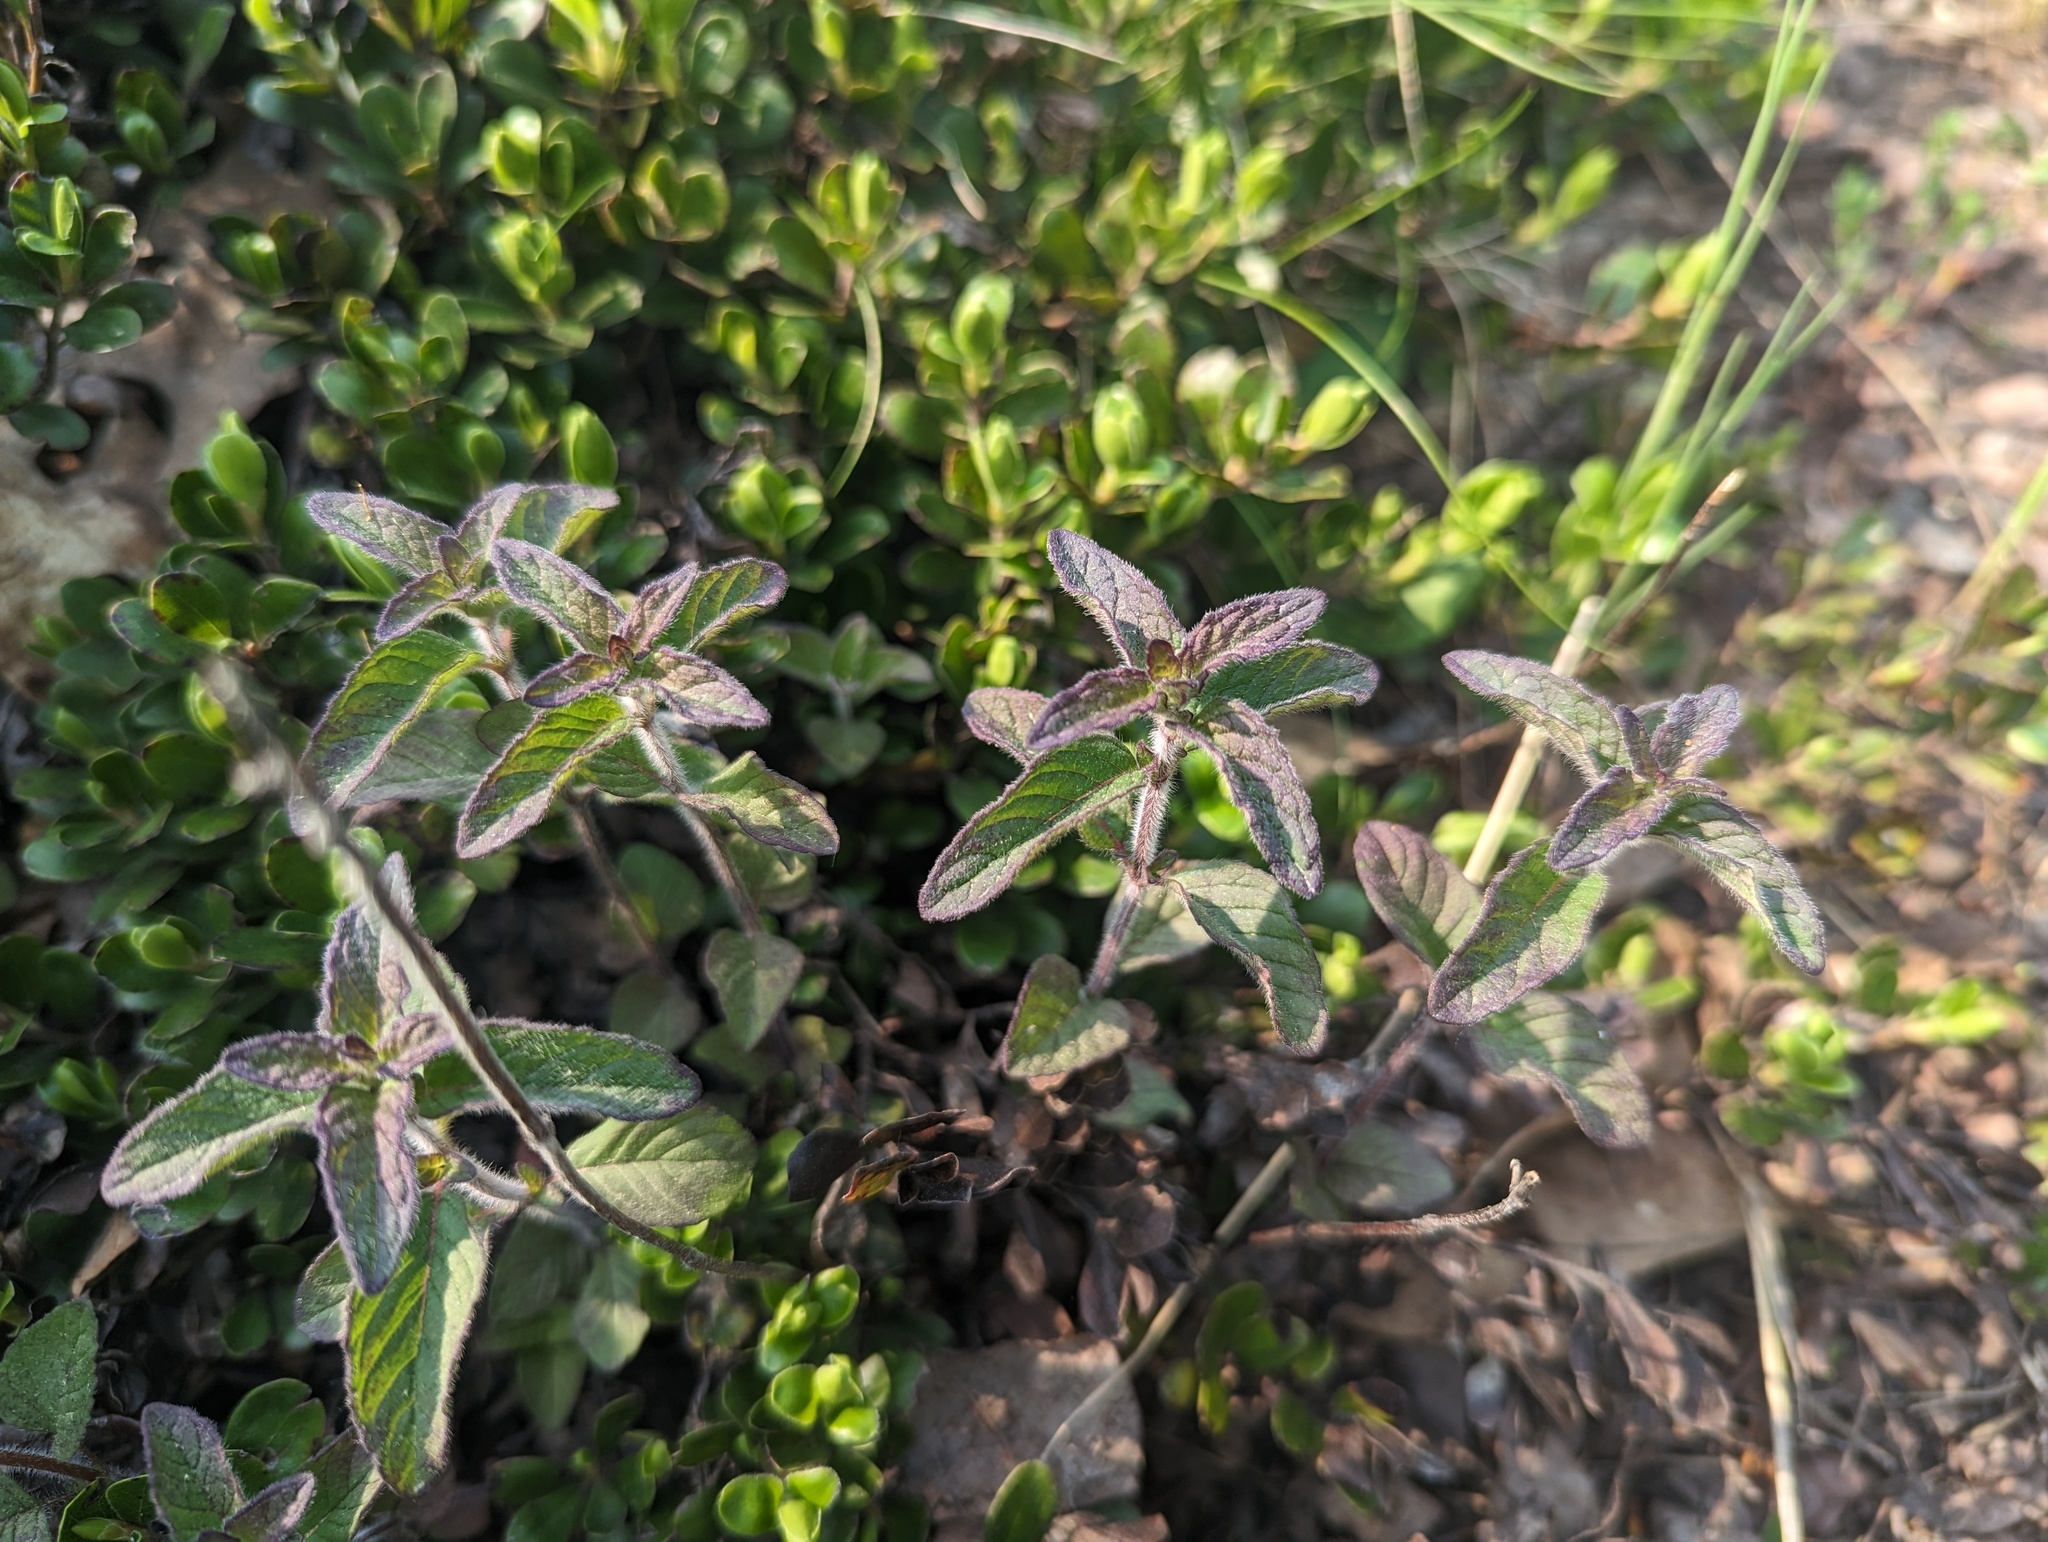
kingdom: Plantae
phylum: Tracheophyta
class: Magnoliopsida
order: Lamiales
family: Lamiaceae
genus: Clinopodium
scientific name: Clinopodium vulgare
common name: Wild basil
